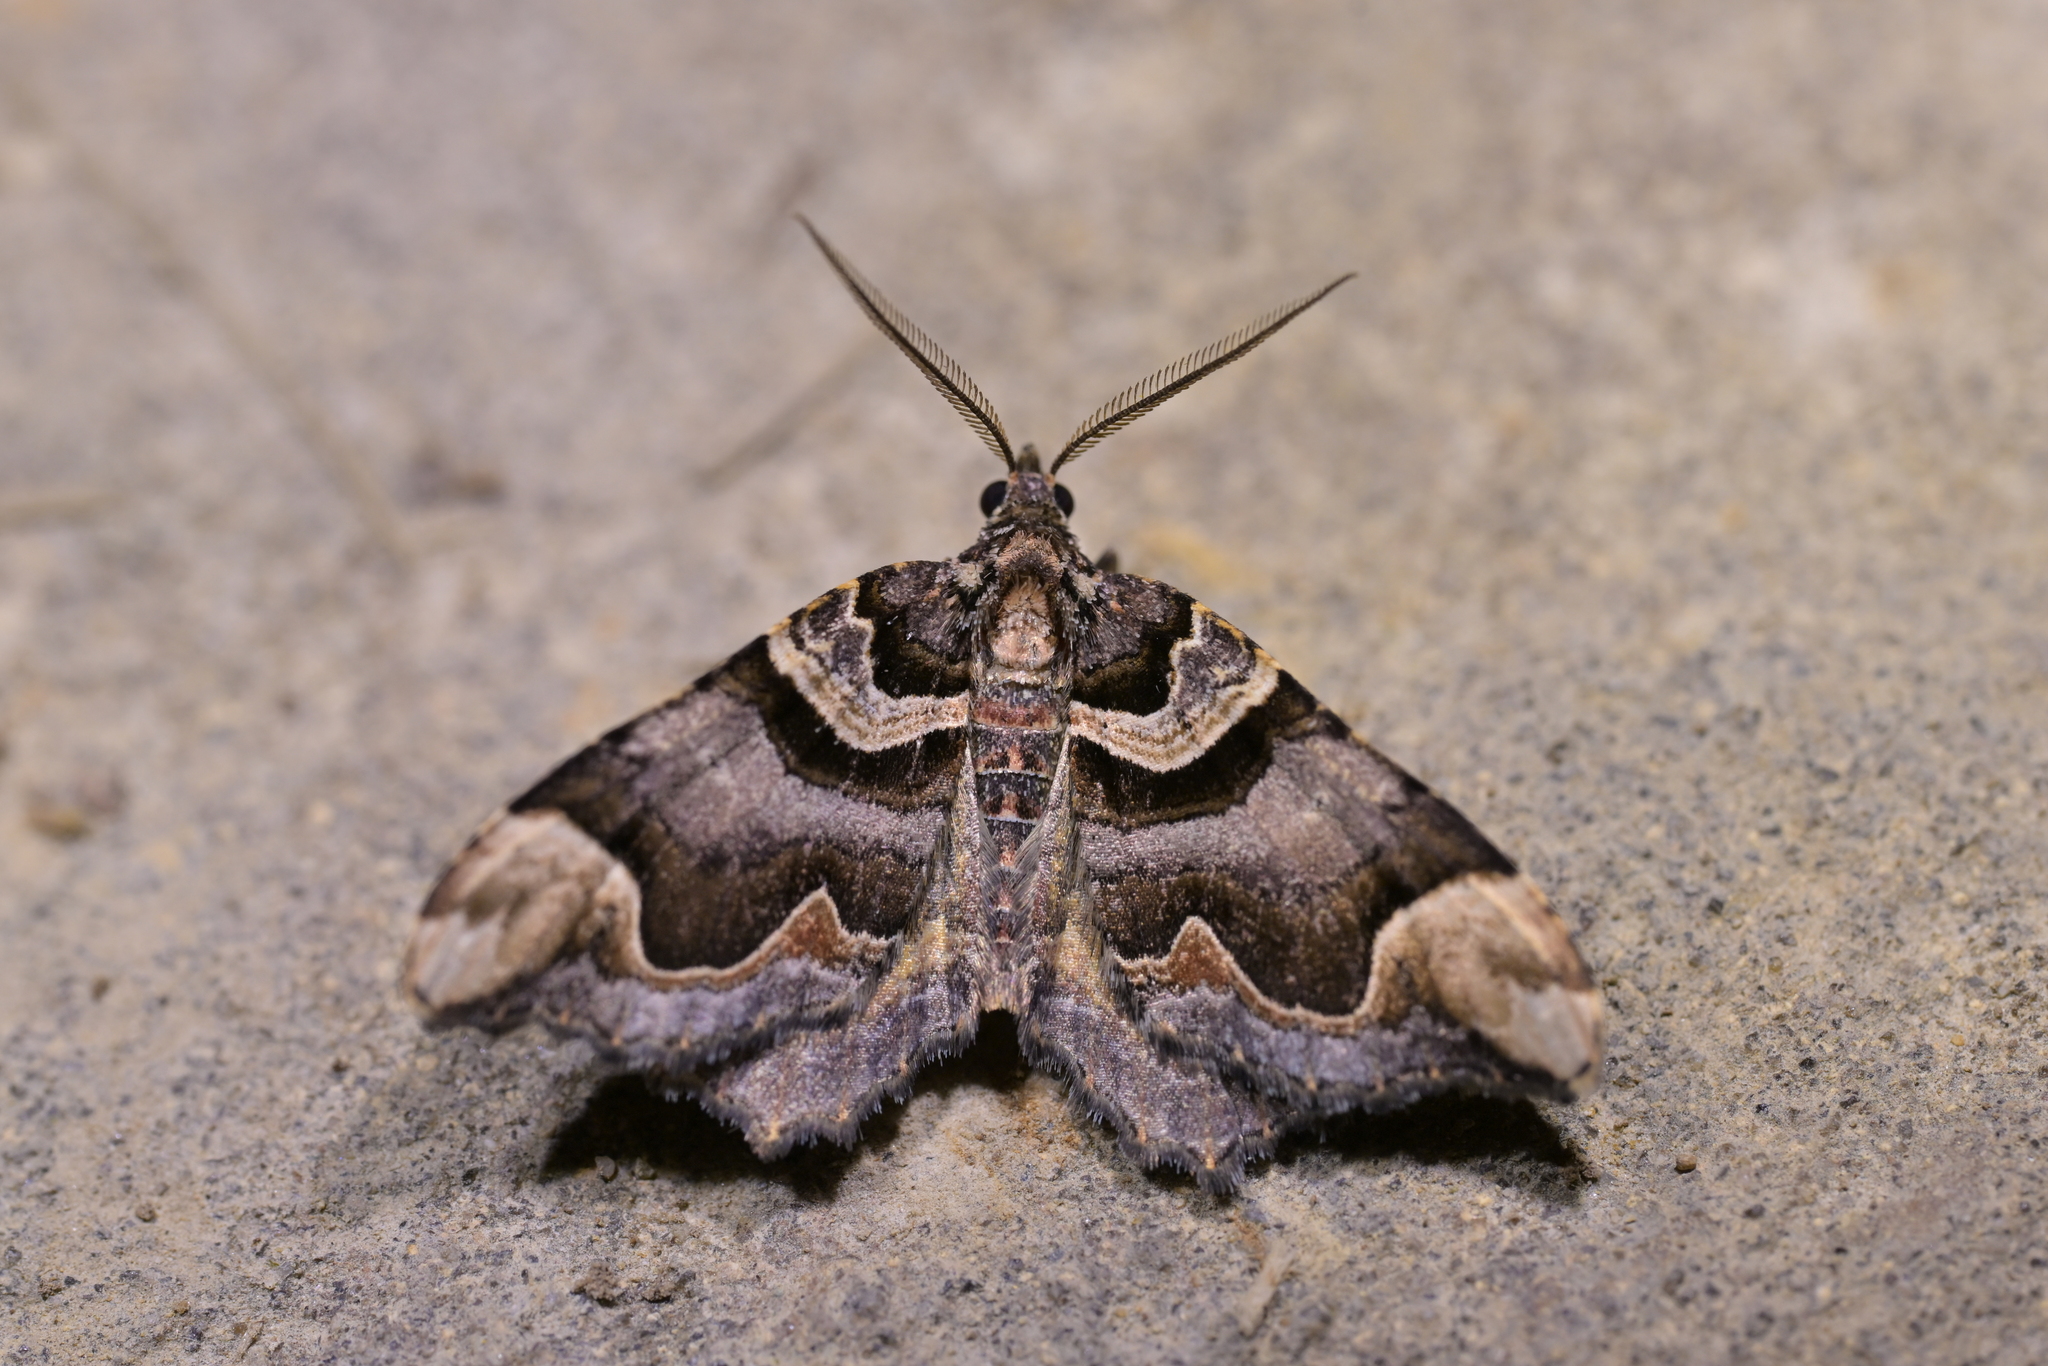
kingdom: Animalia
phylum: Arthropoda
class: Insecta
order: Lepidoptera
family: Geometridae
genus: Asaphodes
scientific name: Asaphodes chlamydota
